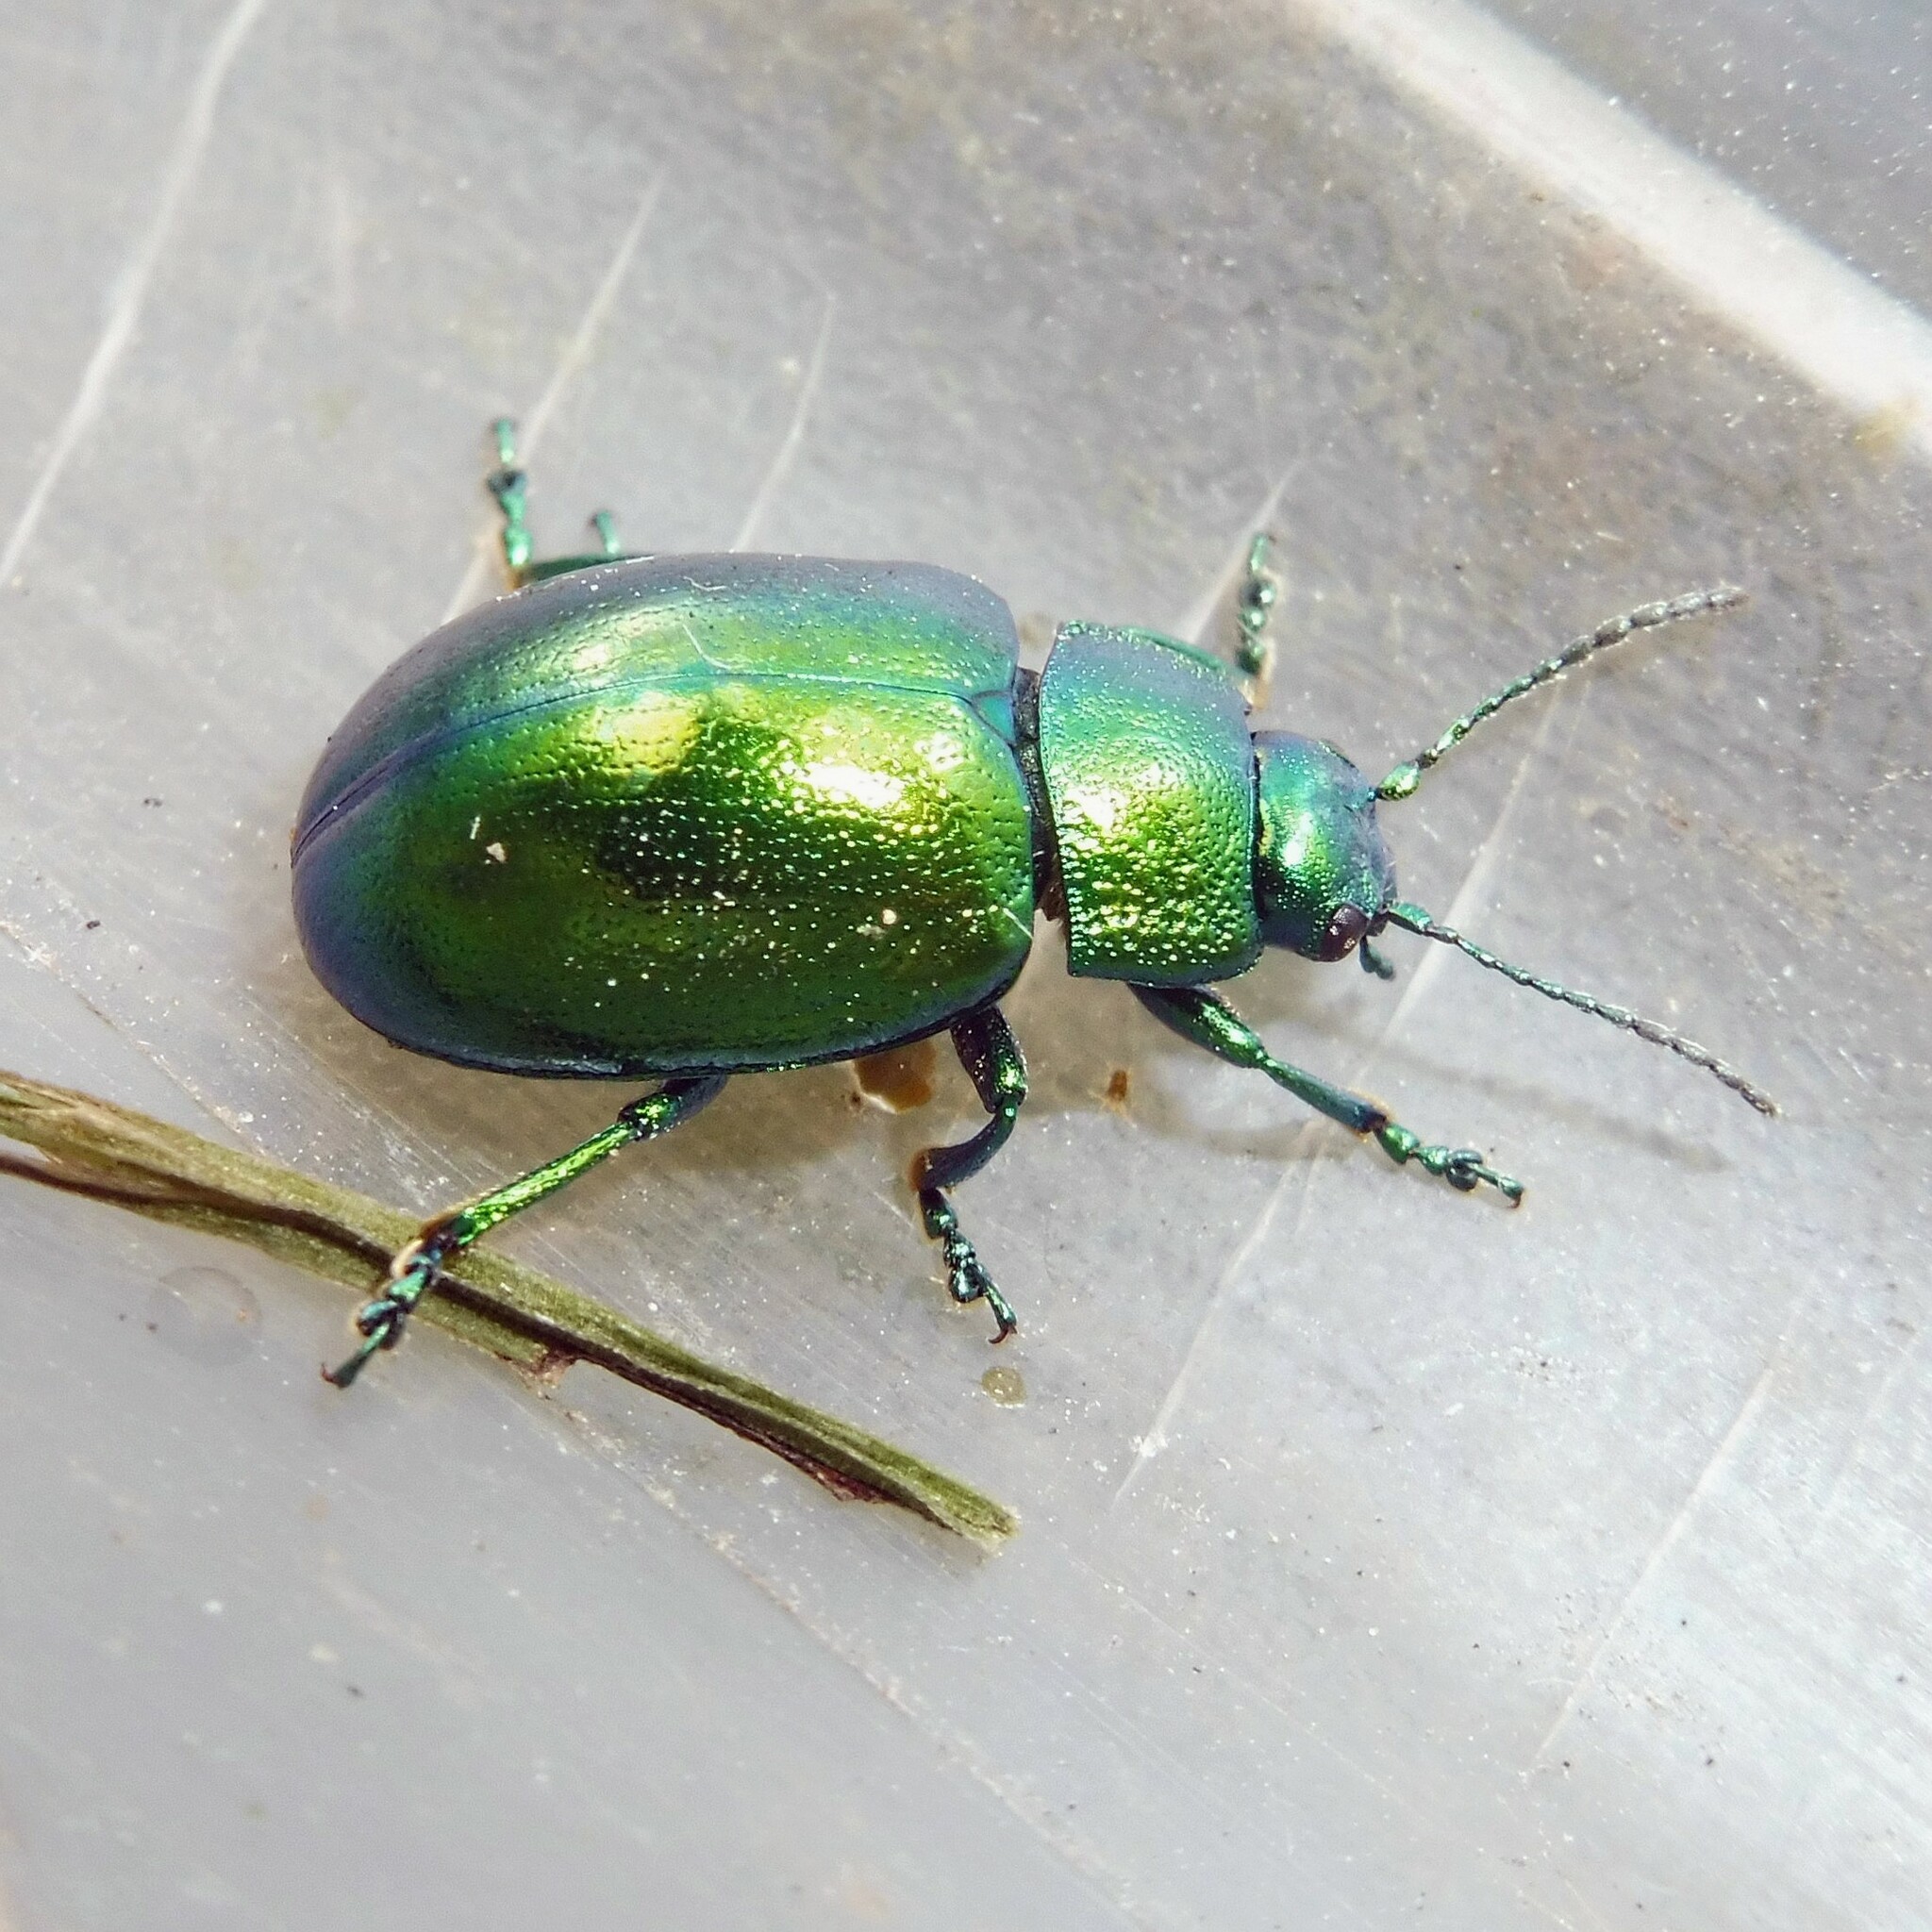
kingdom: Animalia
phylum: Arthropoda
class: Insecta
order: Coleoptera
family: Chrysomelidae
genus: Chrysolina
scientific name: Chrysolina herbacea
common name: Mint leaf beatle
